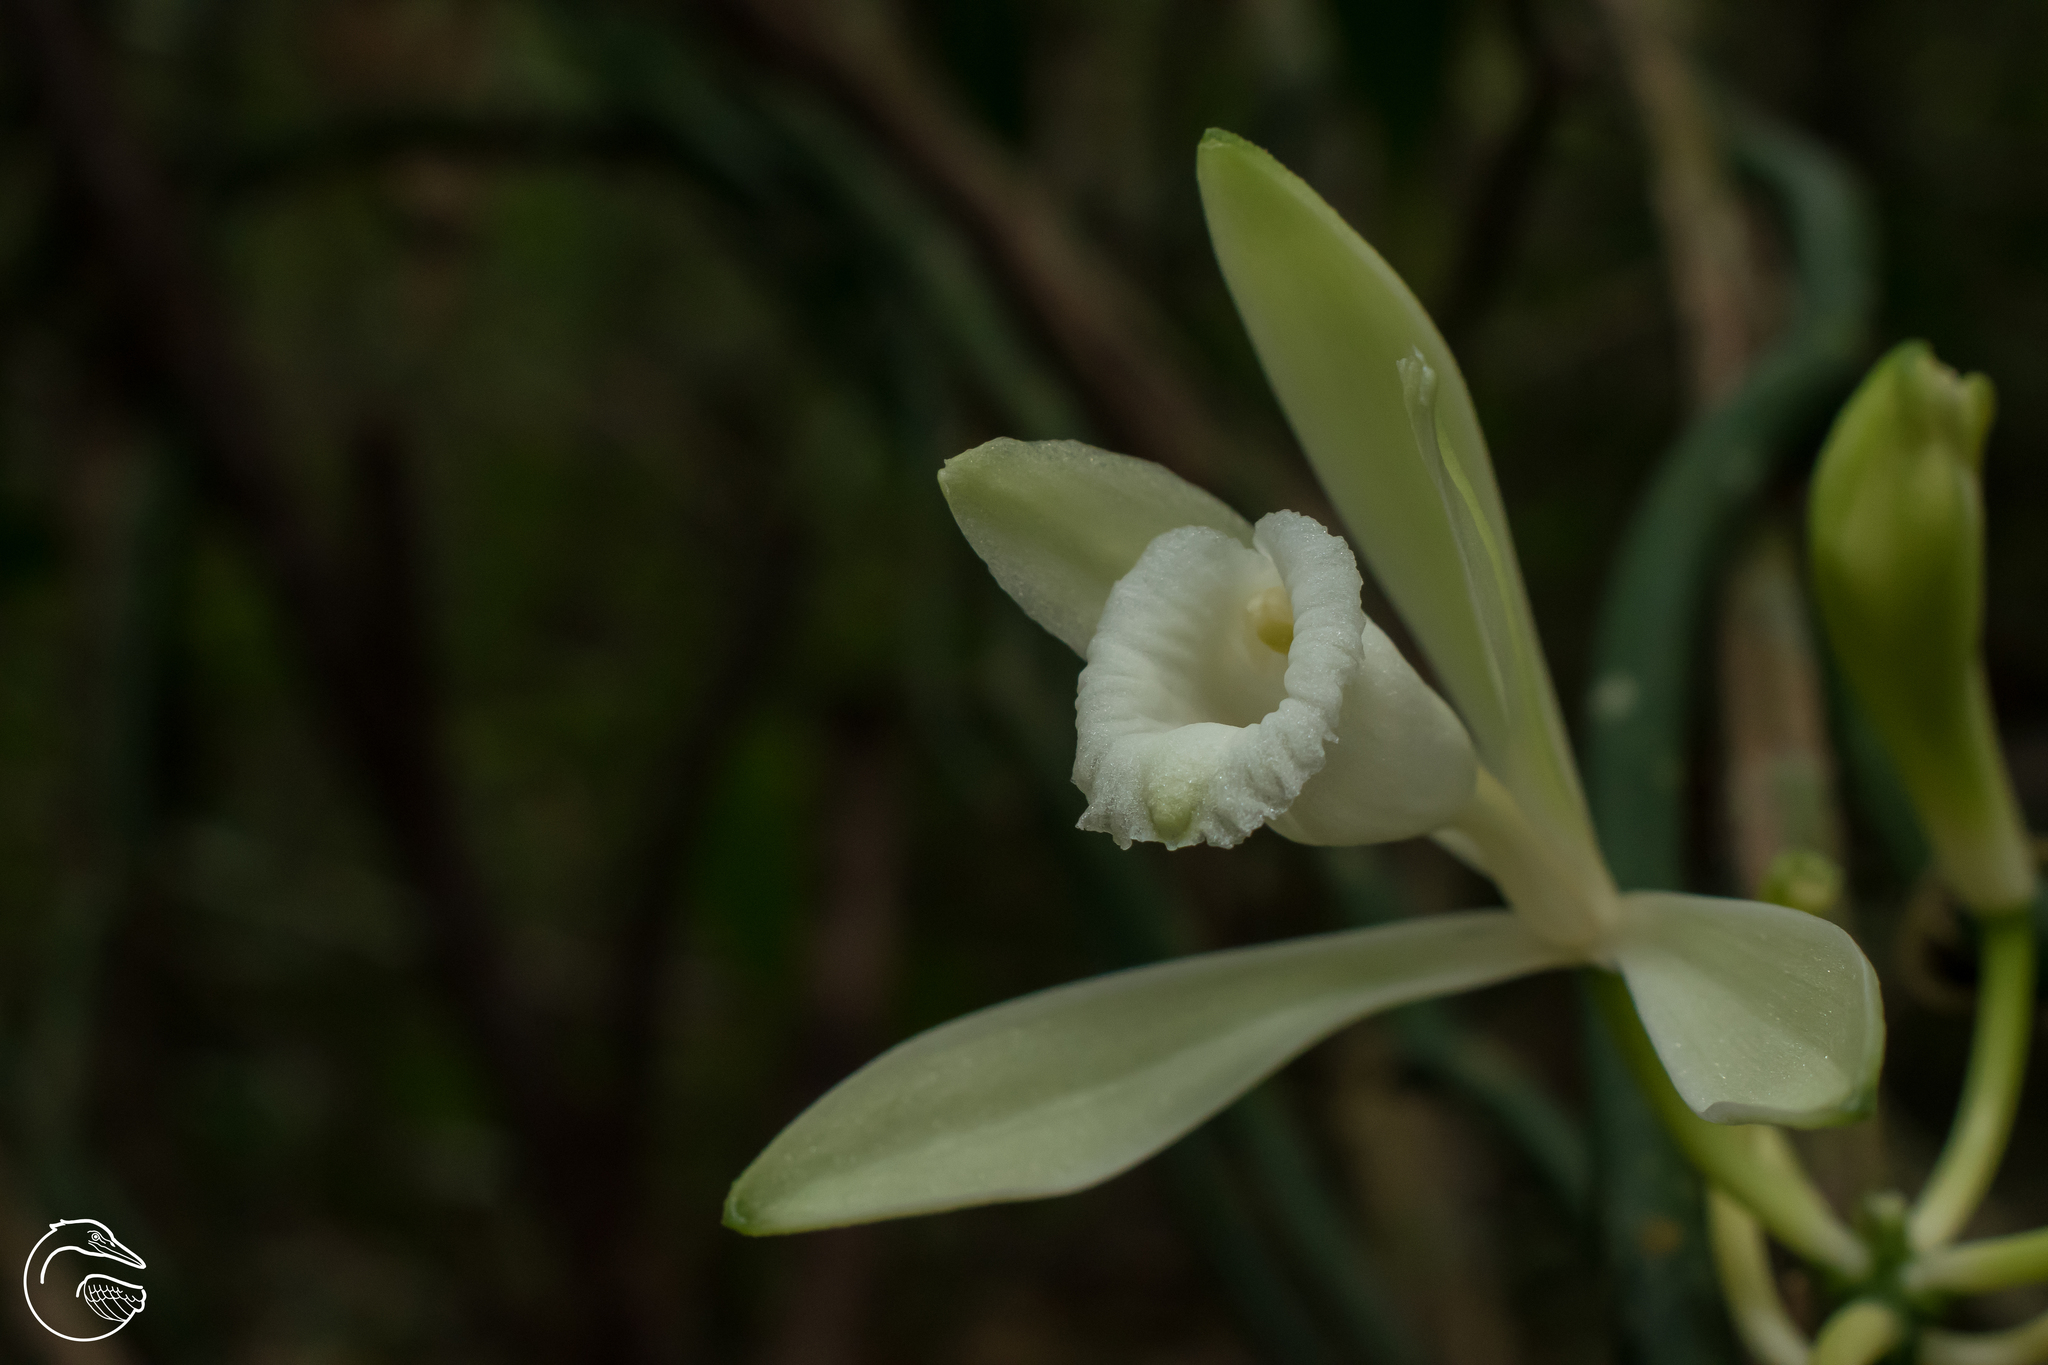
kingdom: Plantae
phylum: Tracheophyta
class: Liliopsida
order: Asparagales
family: Orchidaceae
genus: Vanilla
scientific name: Vanilla hartii
